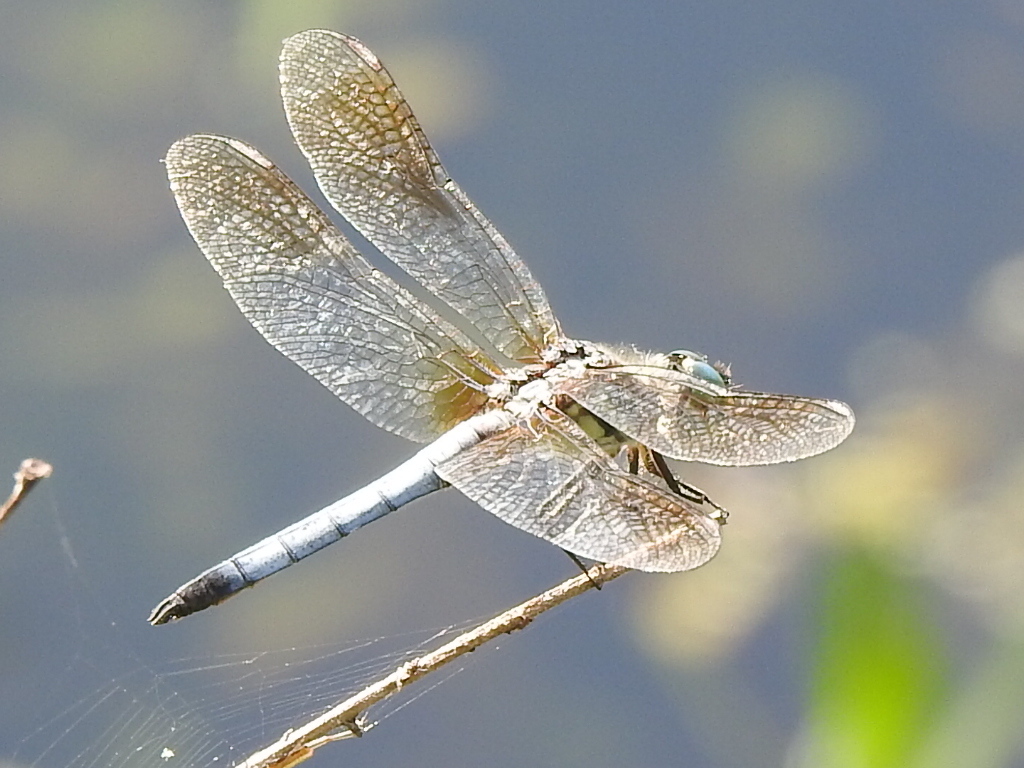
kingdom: Animalia
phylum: Arthropoda
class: Insecta
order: Odonata
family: Libellulidae
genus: Pachydiplax
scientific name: Pachydiplax longipennis
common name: Blue dasher
